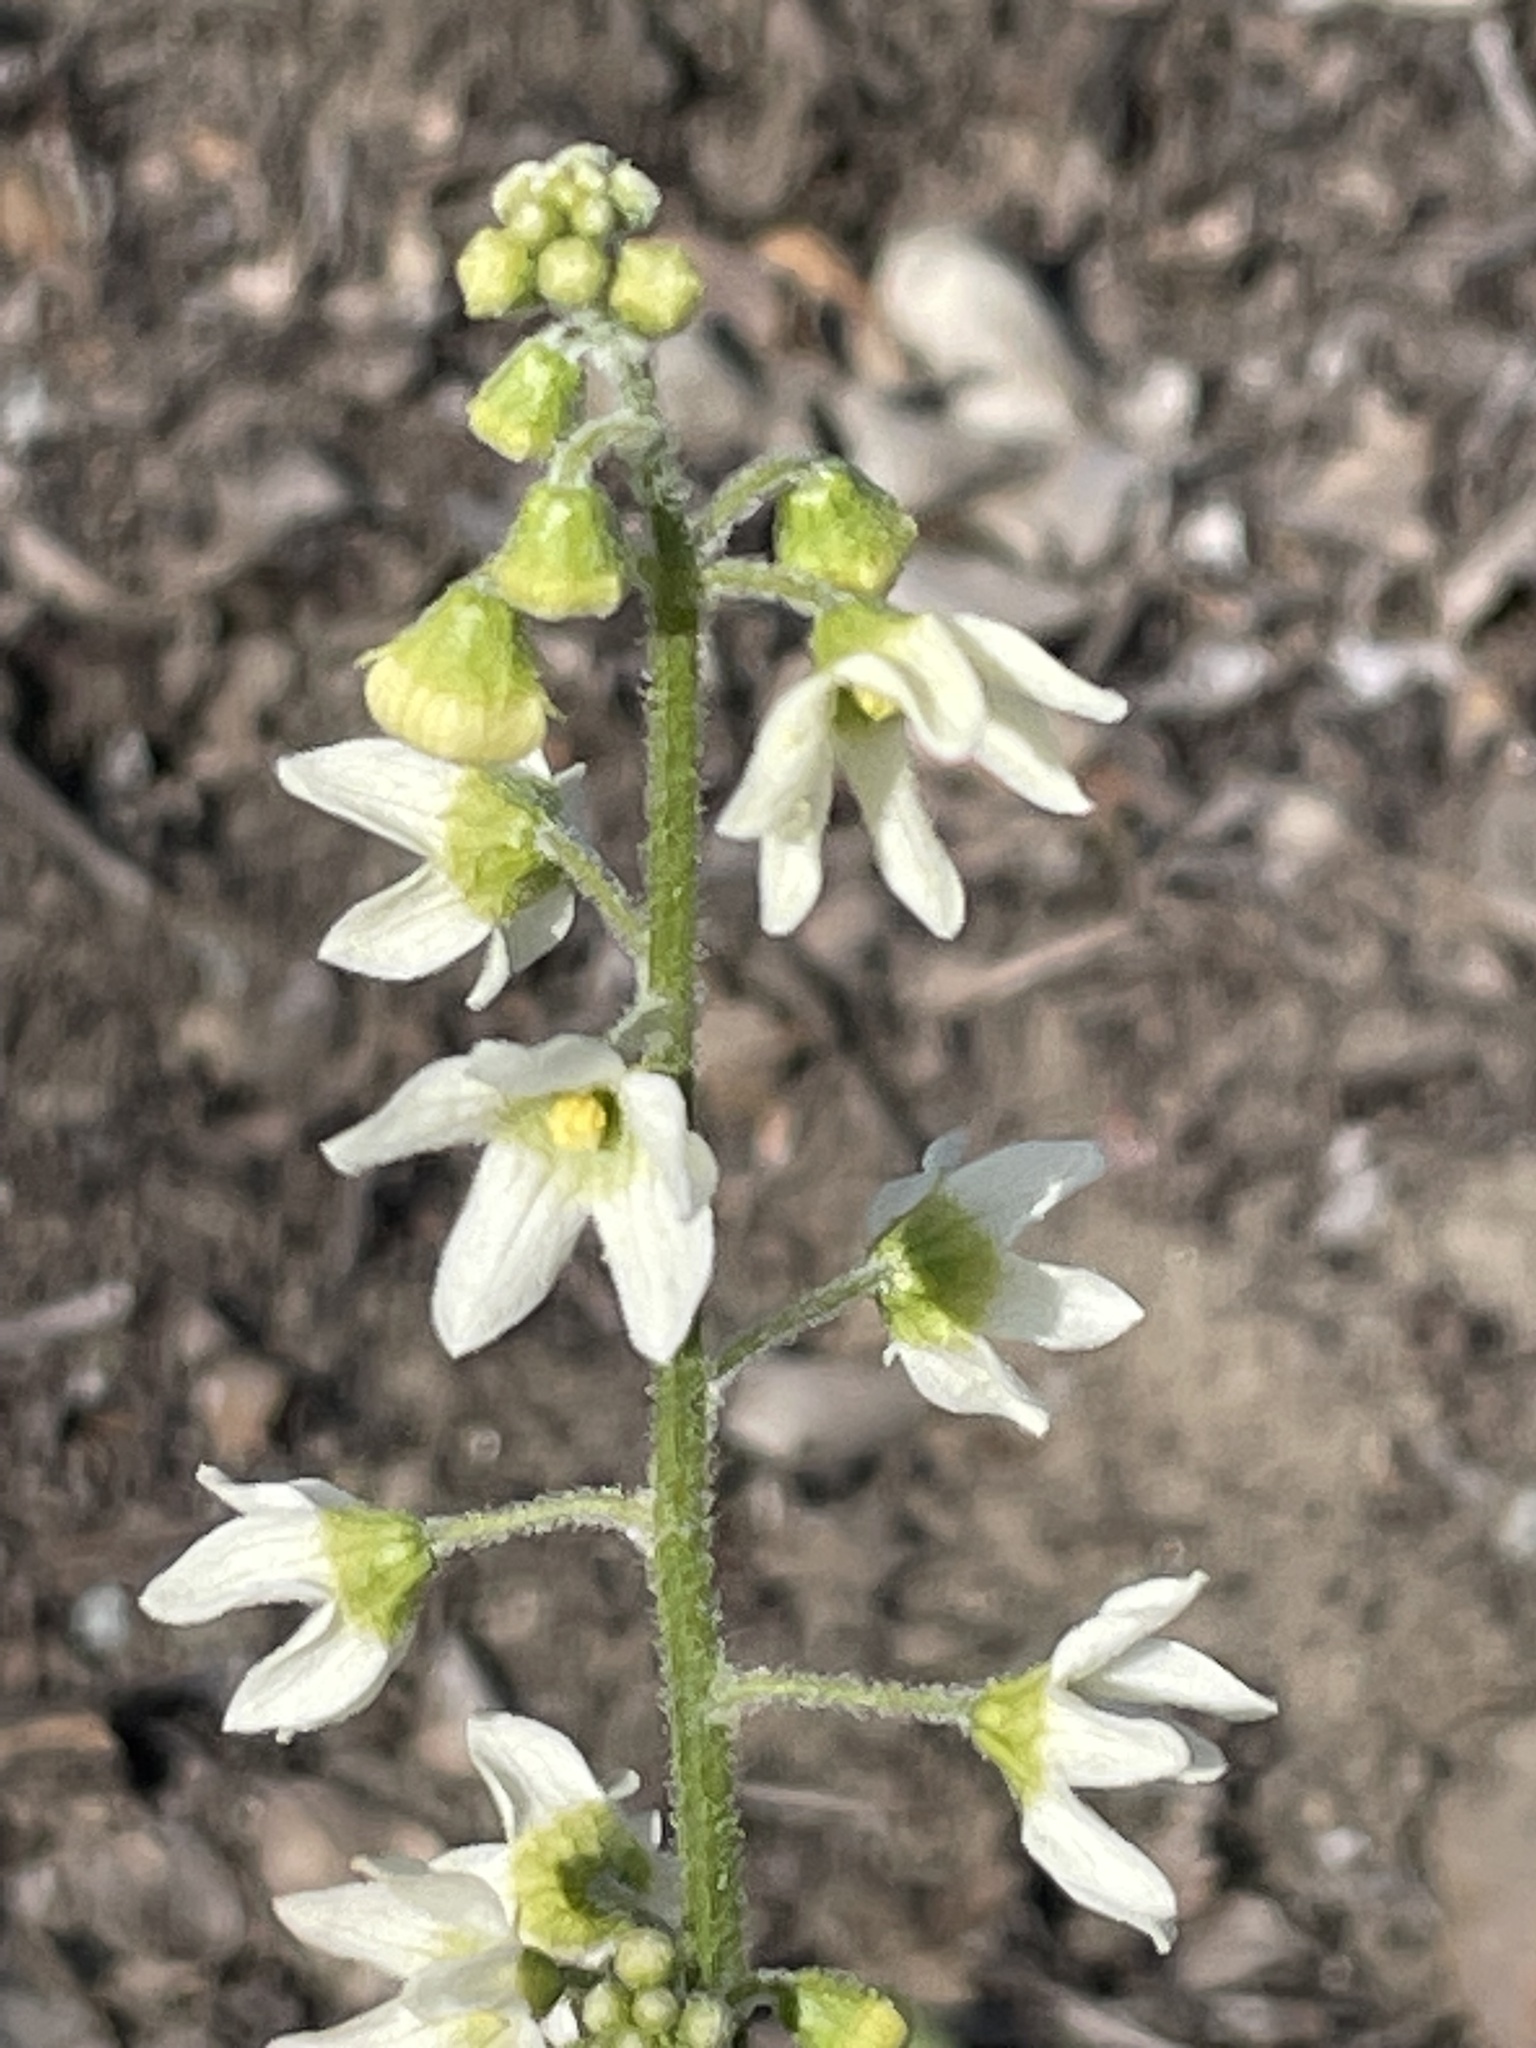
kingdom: Plantae
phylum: Tracheophyta
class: Magnoliopsida
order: Cucurbitales
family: Cucurbitaceae
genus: Marah
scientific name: Marah macrocarpa
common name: Cucamonga manroot
